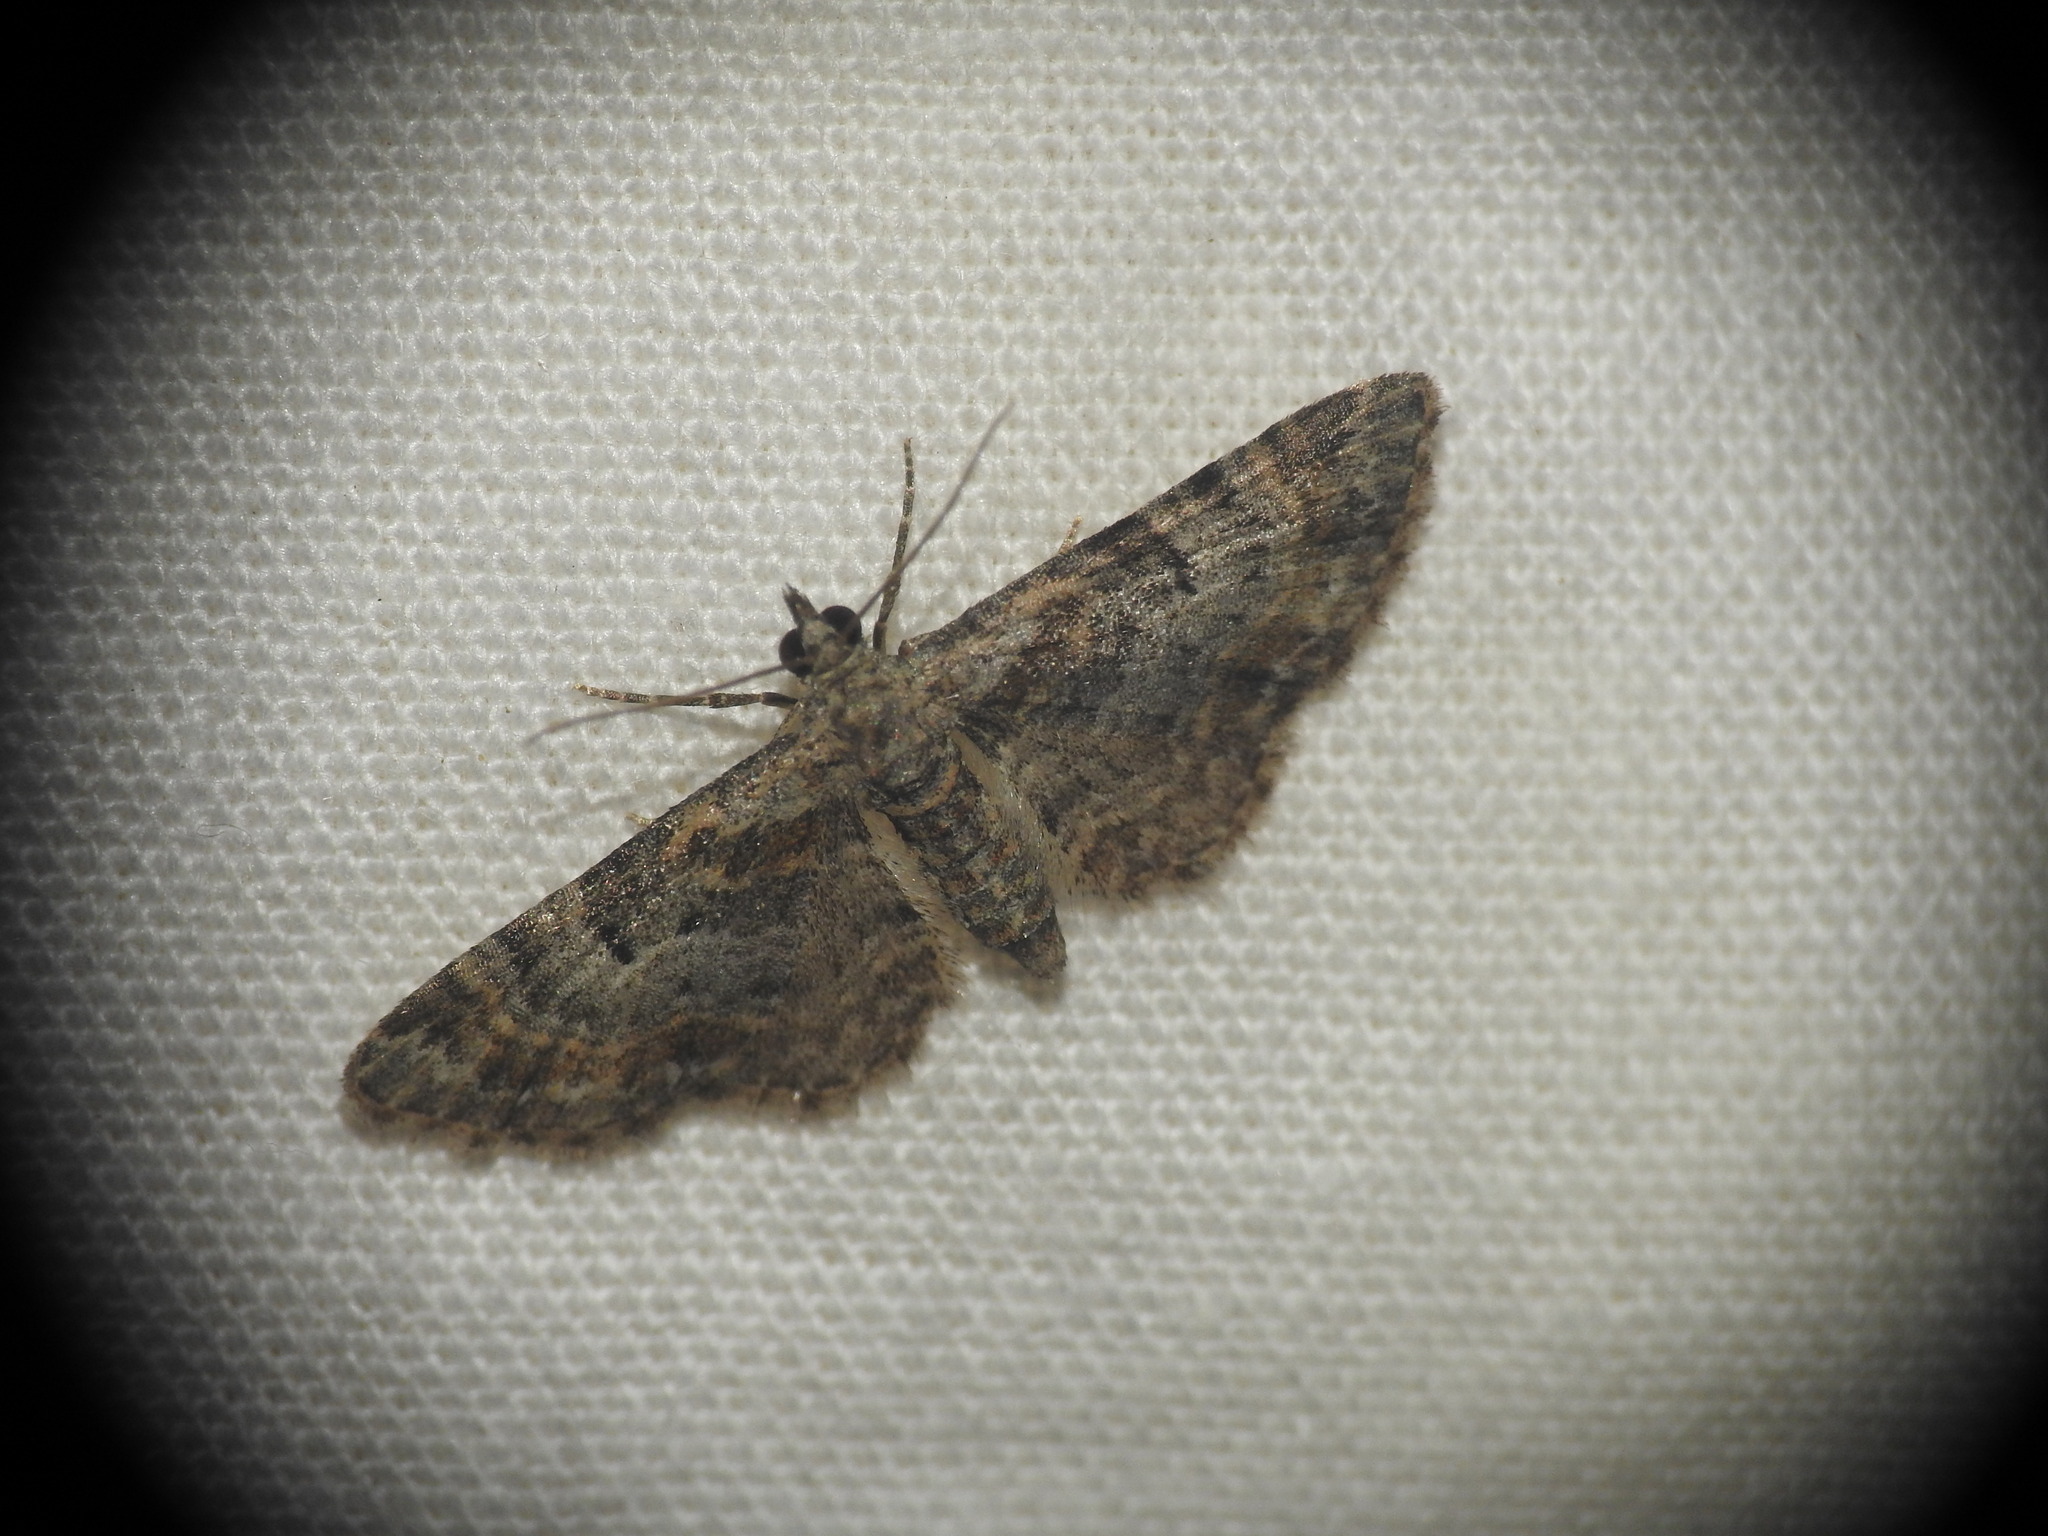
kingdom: Animalia
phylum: Arthropoda
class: Insecta
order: Lepidoptera
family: Geometridae
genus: Gymnoscelis
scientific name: Gymnoscelis rufifasciata
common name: Double-striped pug
